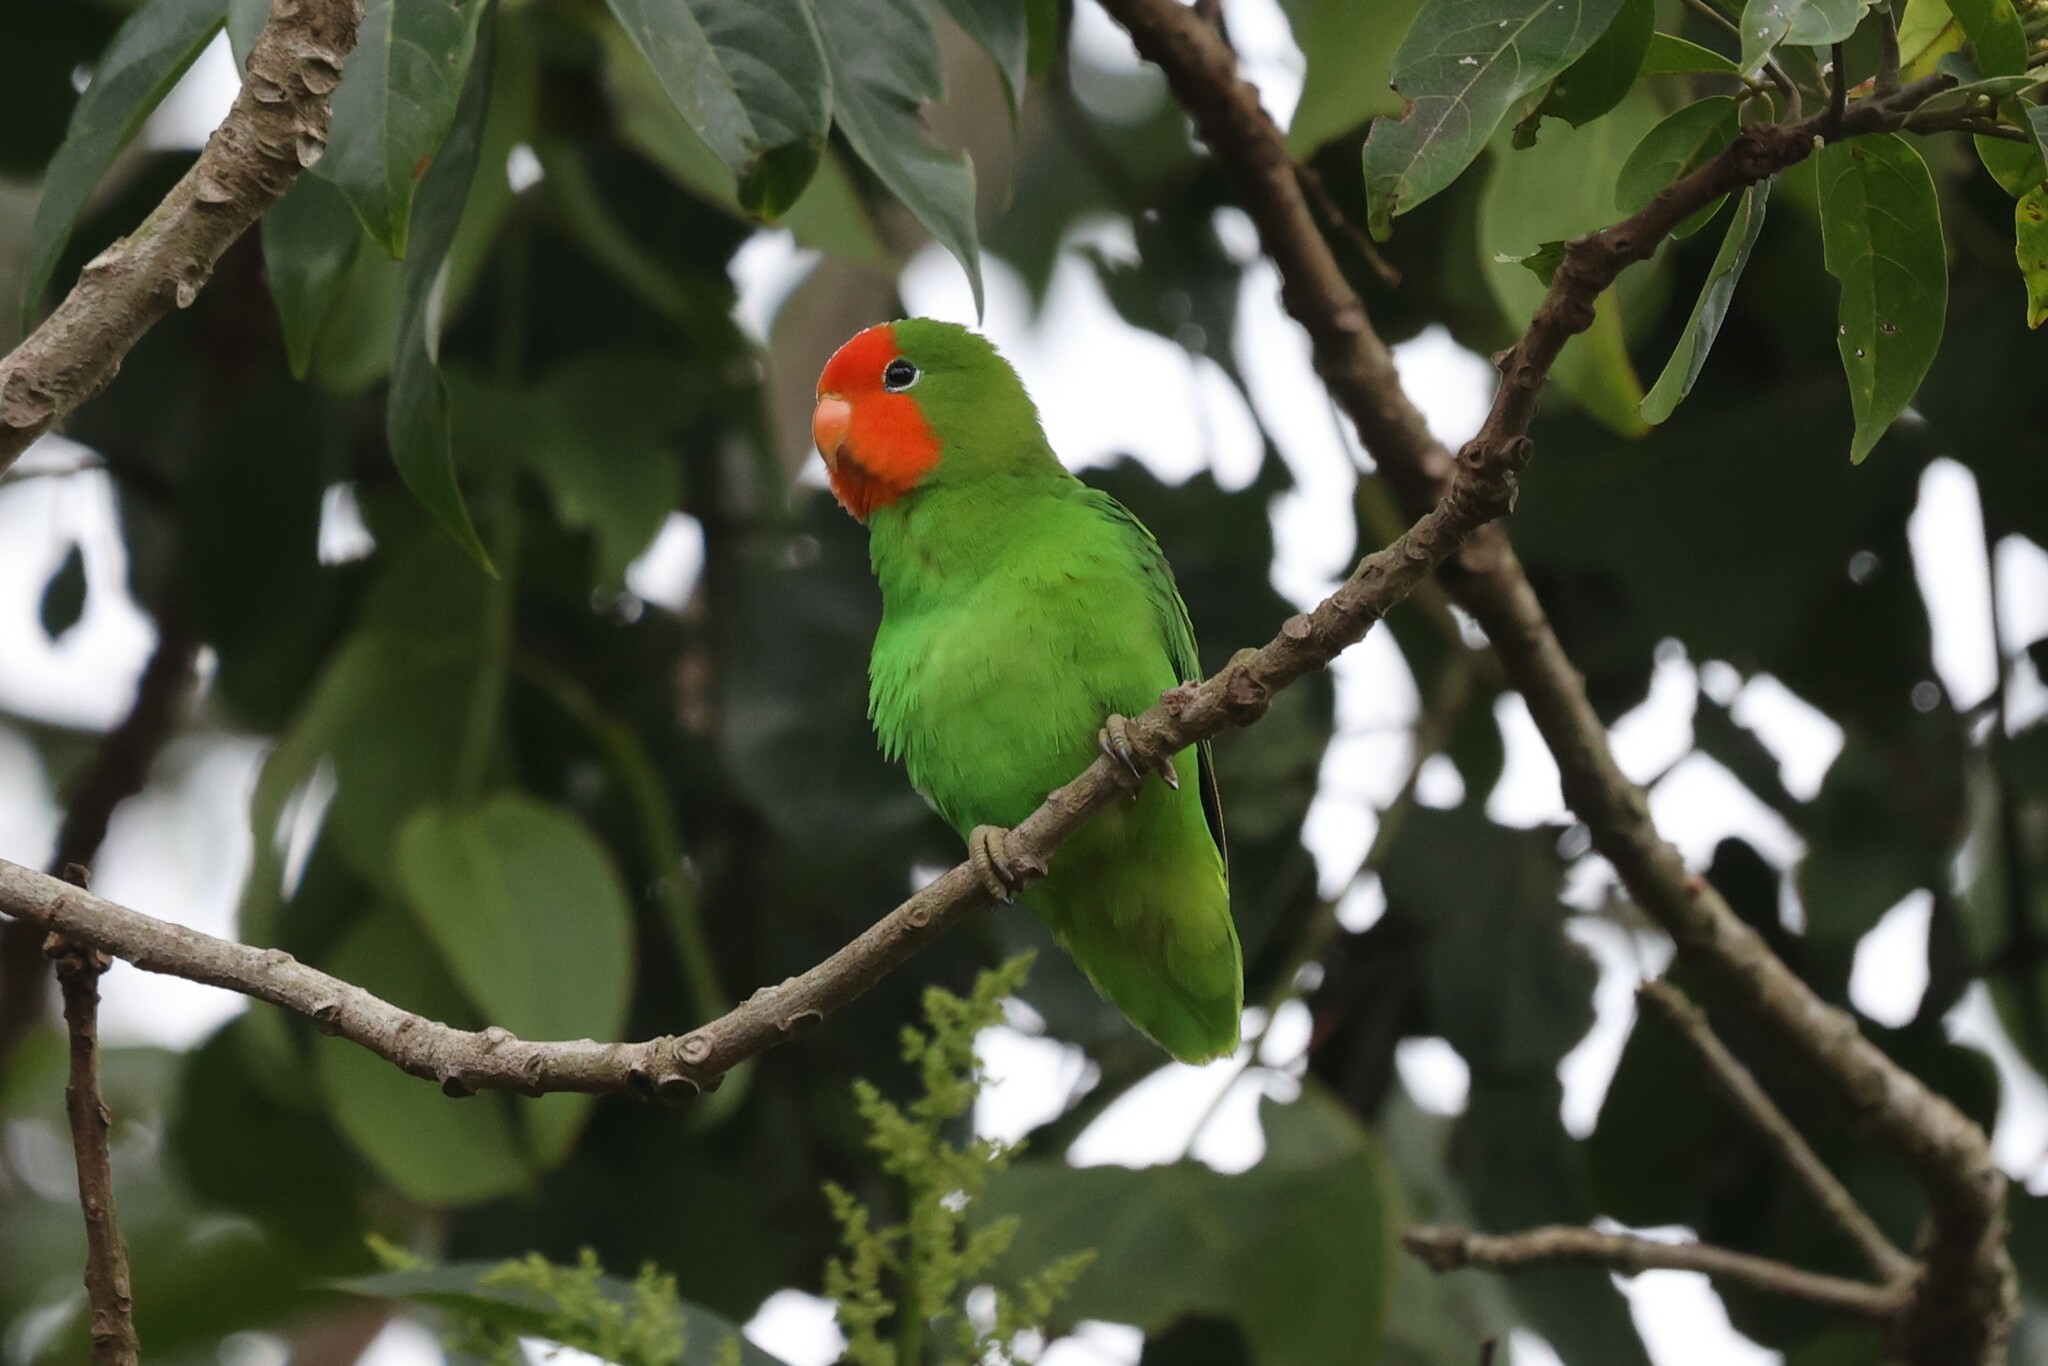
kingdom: Animalia
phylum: Chordata
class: Aves
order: Psittaciformes
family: Psittacidae
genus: Agapornis
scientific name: Agapornis pullarius
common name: Red-headed lovebird
